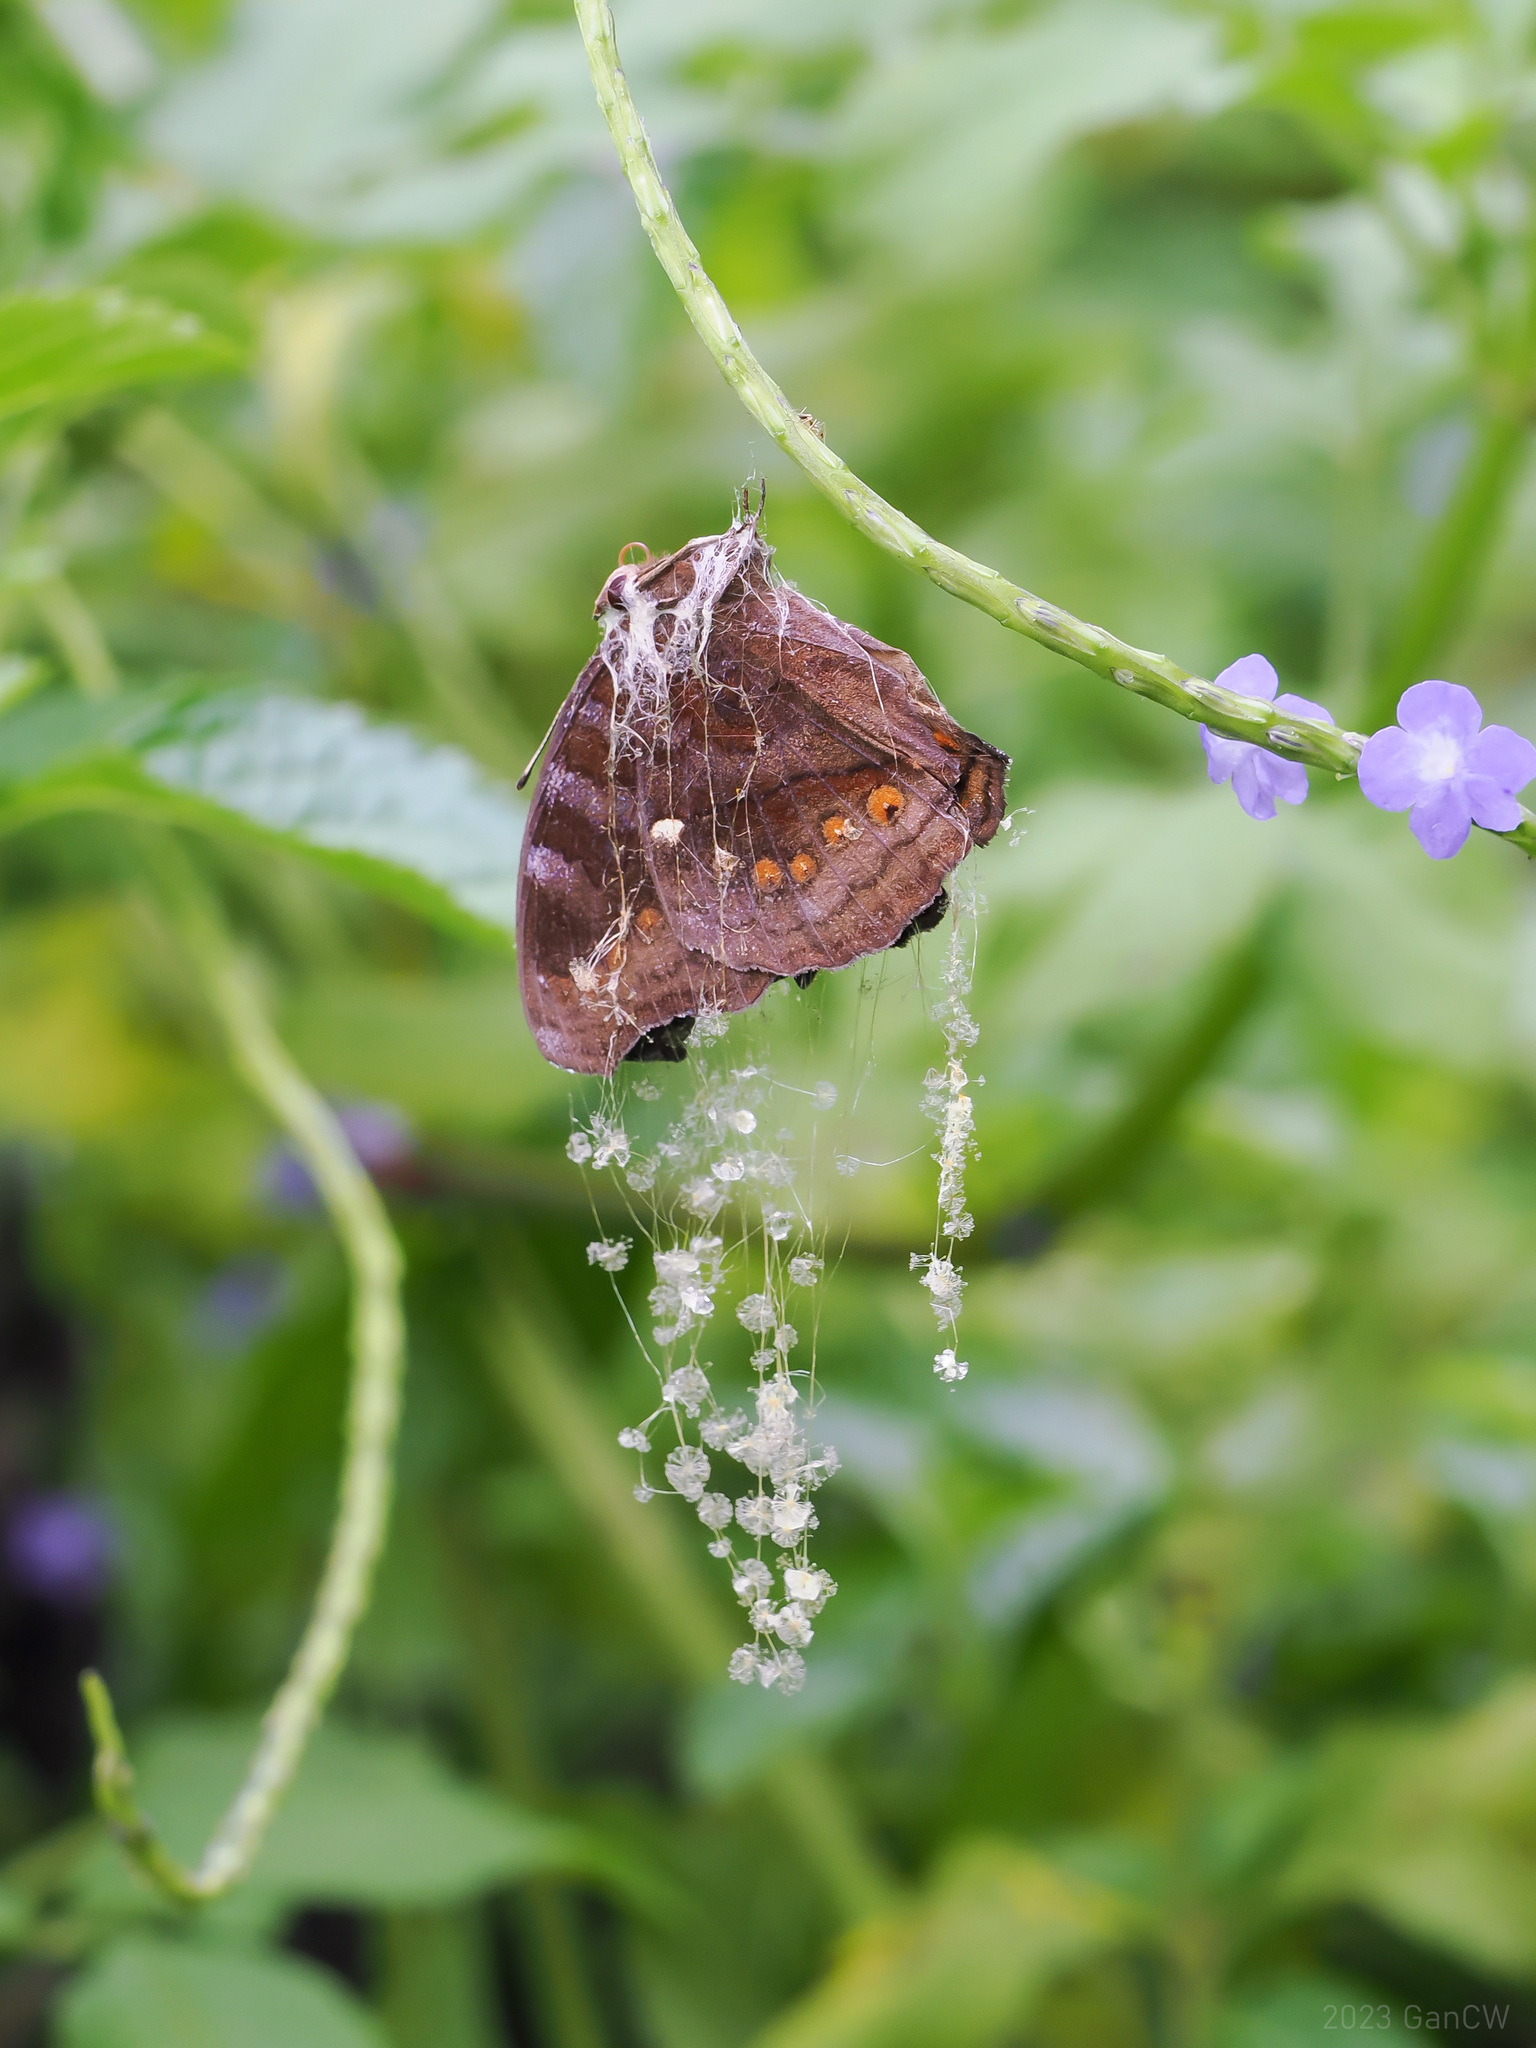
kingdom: Animalia
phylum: Arthropoda
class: Insecta
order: Lepidoptera
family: Nymphalidae
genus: Junonia
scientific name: Junonia hedonia
